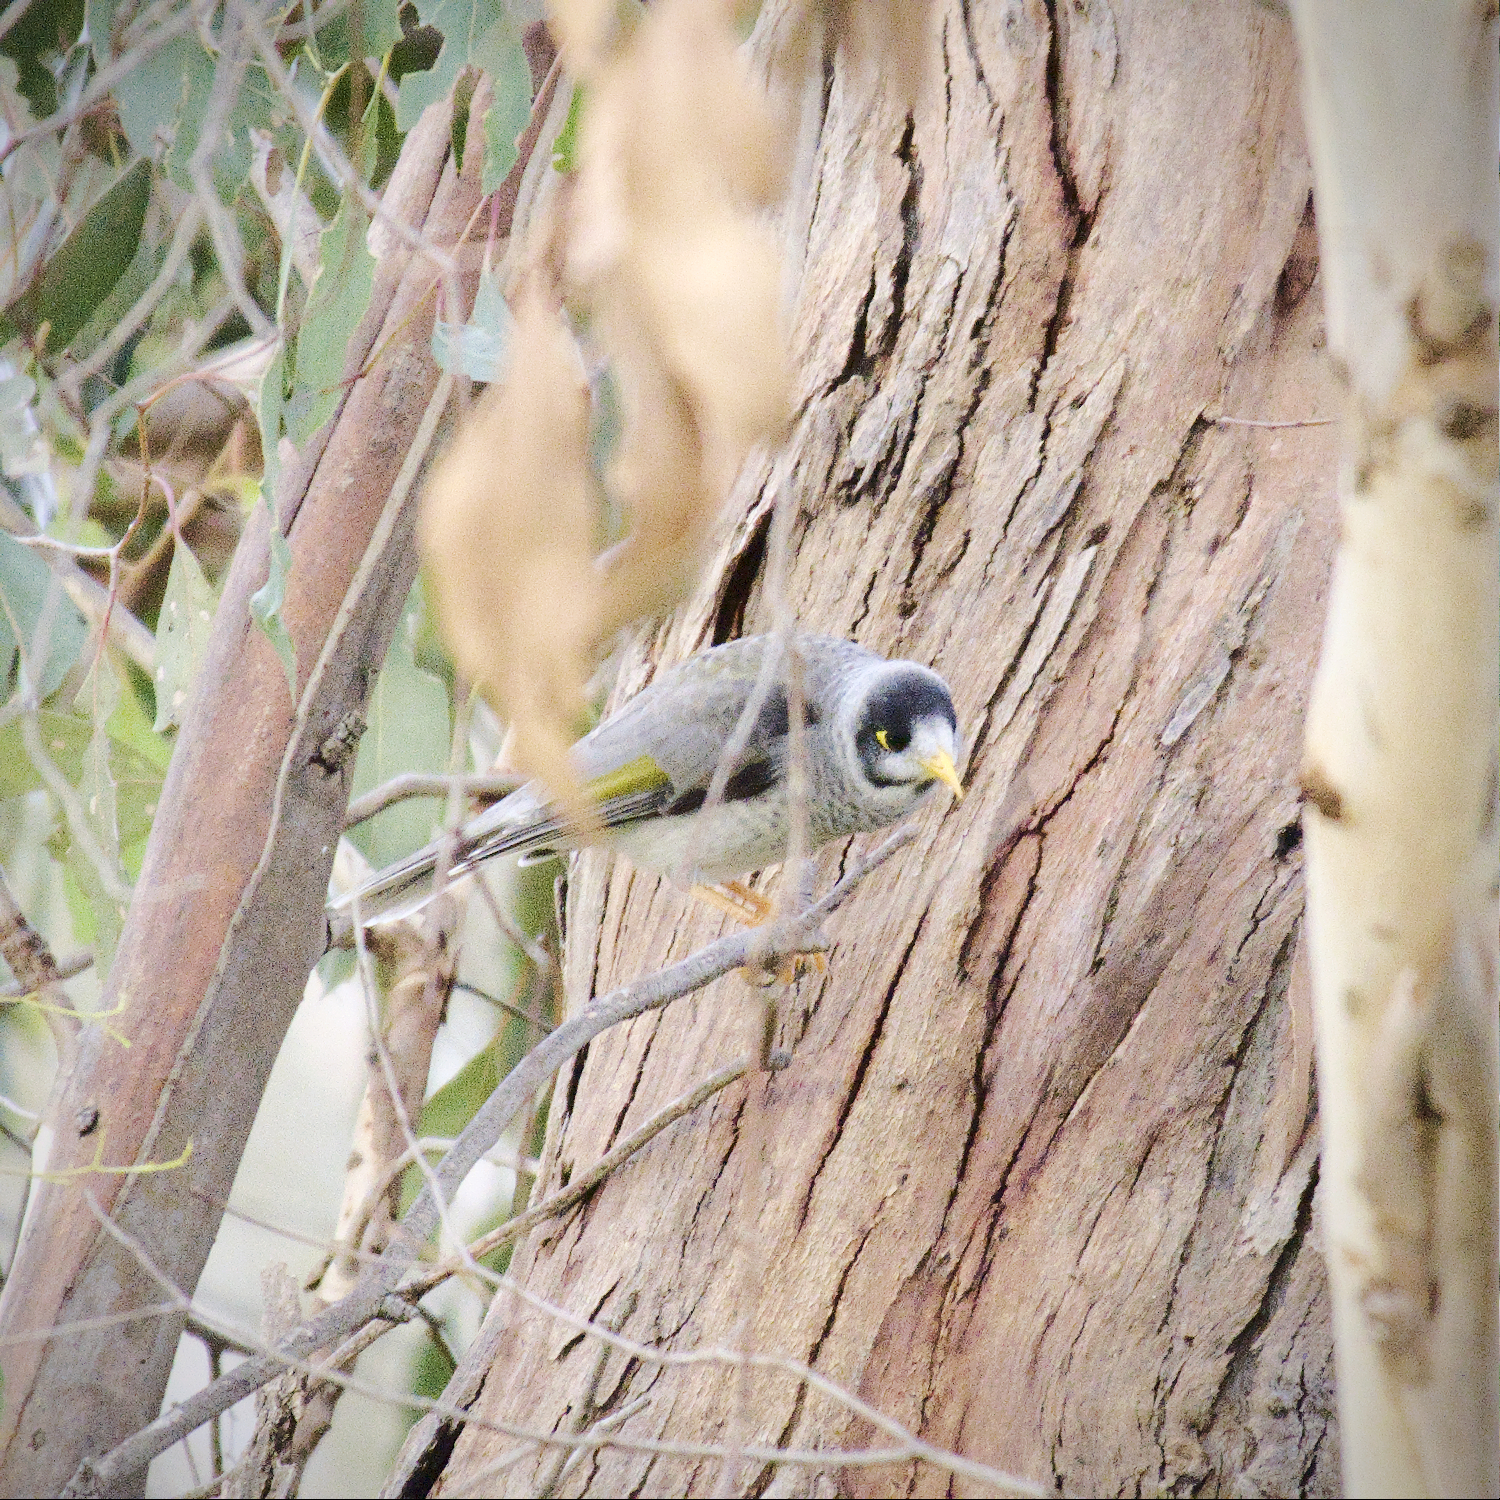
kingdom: Animalia
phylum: Chordata
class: Aves
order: Passeriformes
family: Meliphagidae
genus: Manorina
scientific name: Manorina melanocephala
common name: Noisy miner
